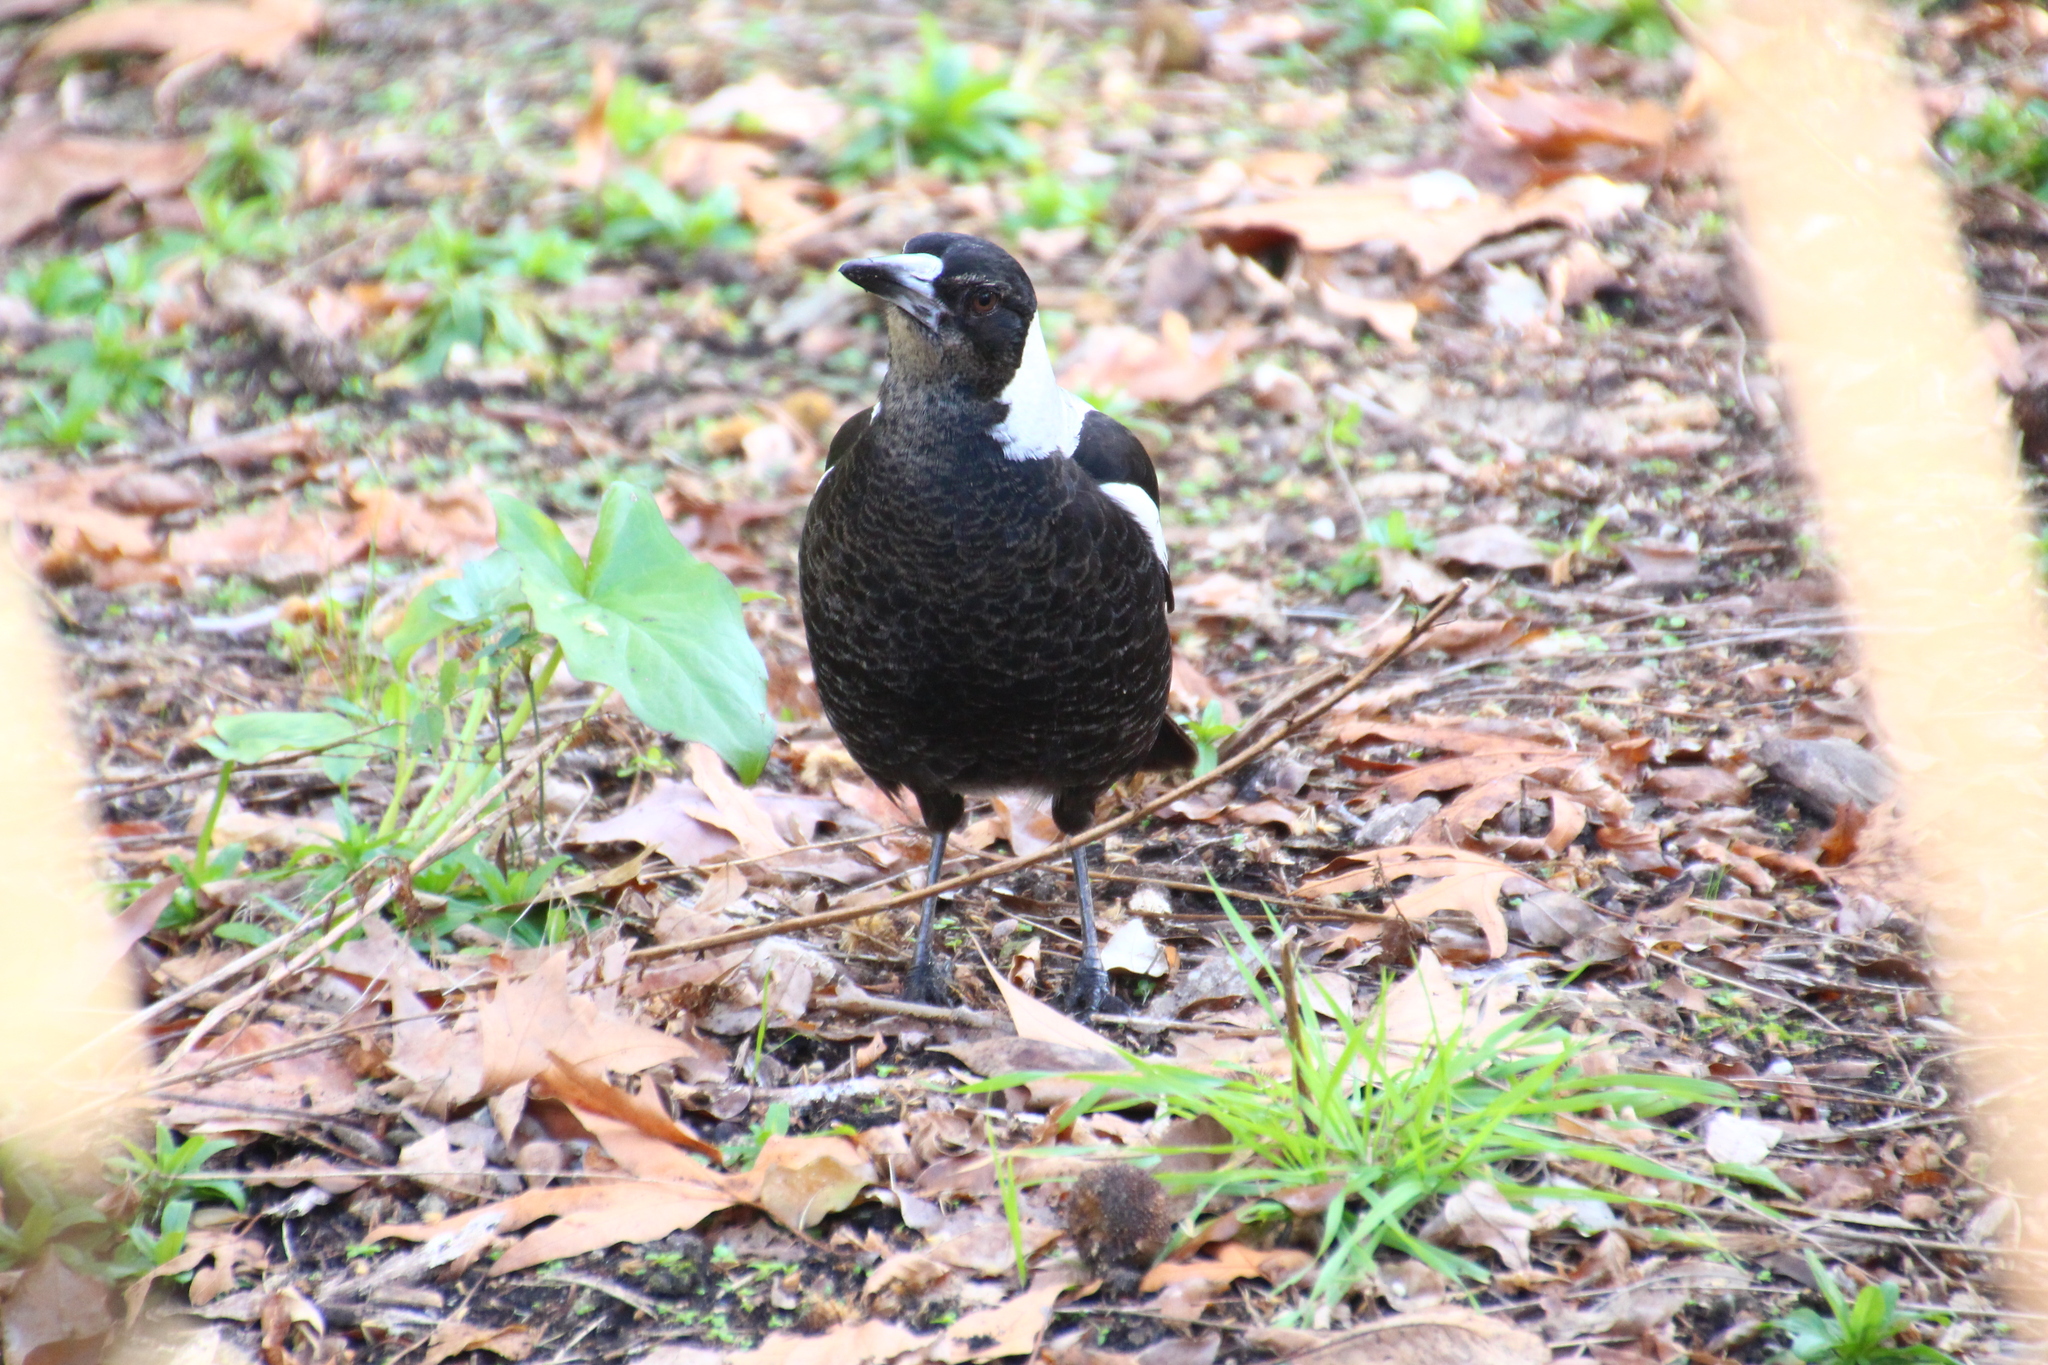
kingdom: Animalia
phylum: Chordata
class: Aves
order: Passeriformes
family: Cracticidae
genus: Gymnorhina
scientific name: Gymnorhina tibicen
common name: Australian magpie
